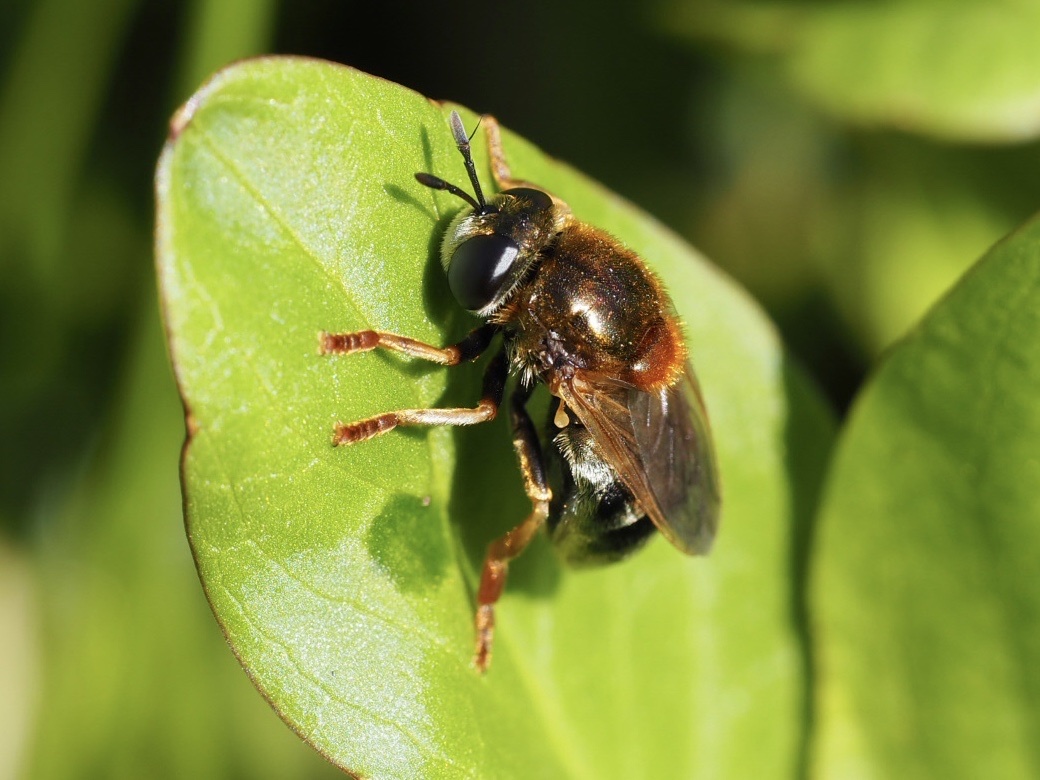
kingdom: Animalia
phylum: Arthropoda
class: Insecta
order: Diptera
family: Syrphidae
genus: Microdon
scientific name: Microdon myrmicae
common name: Bog ant fly
